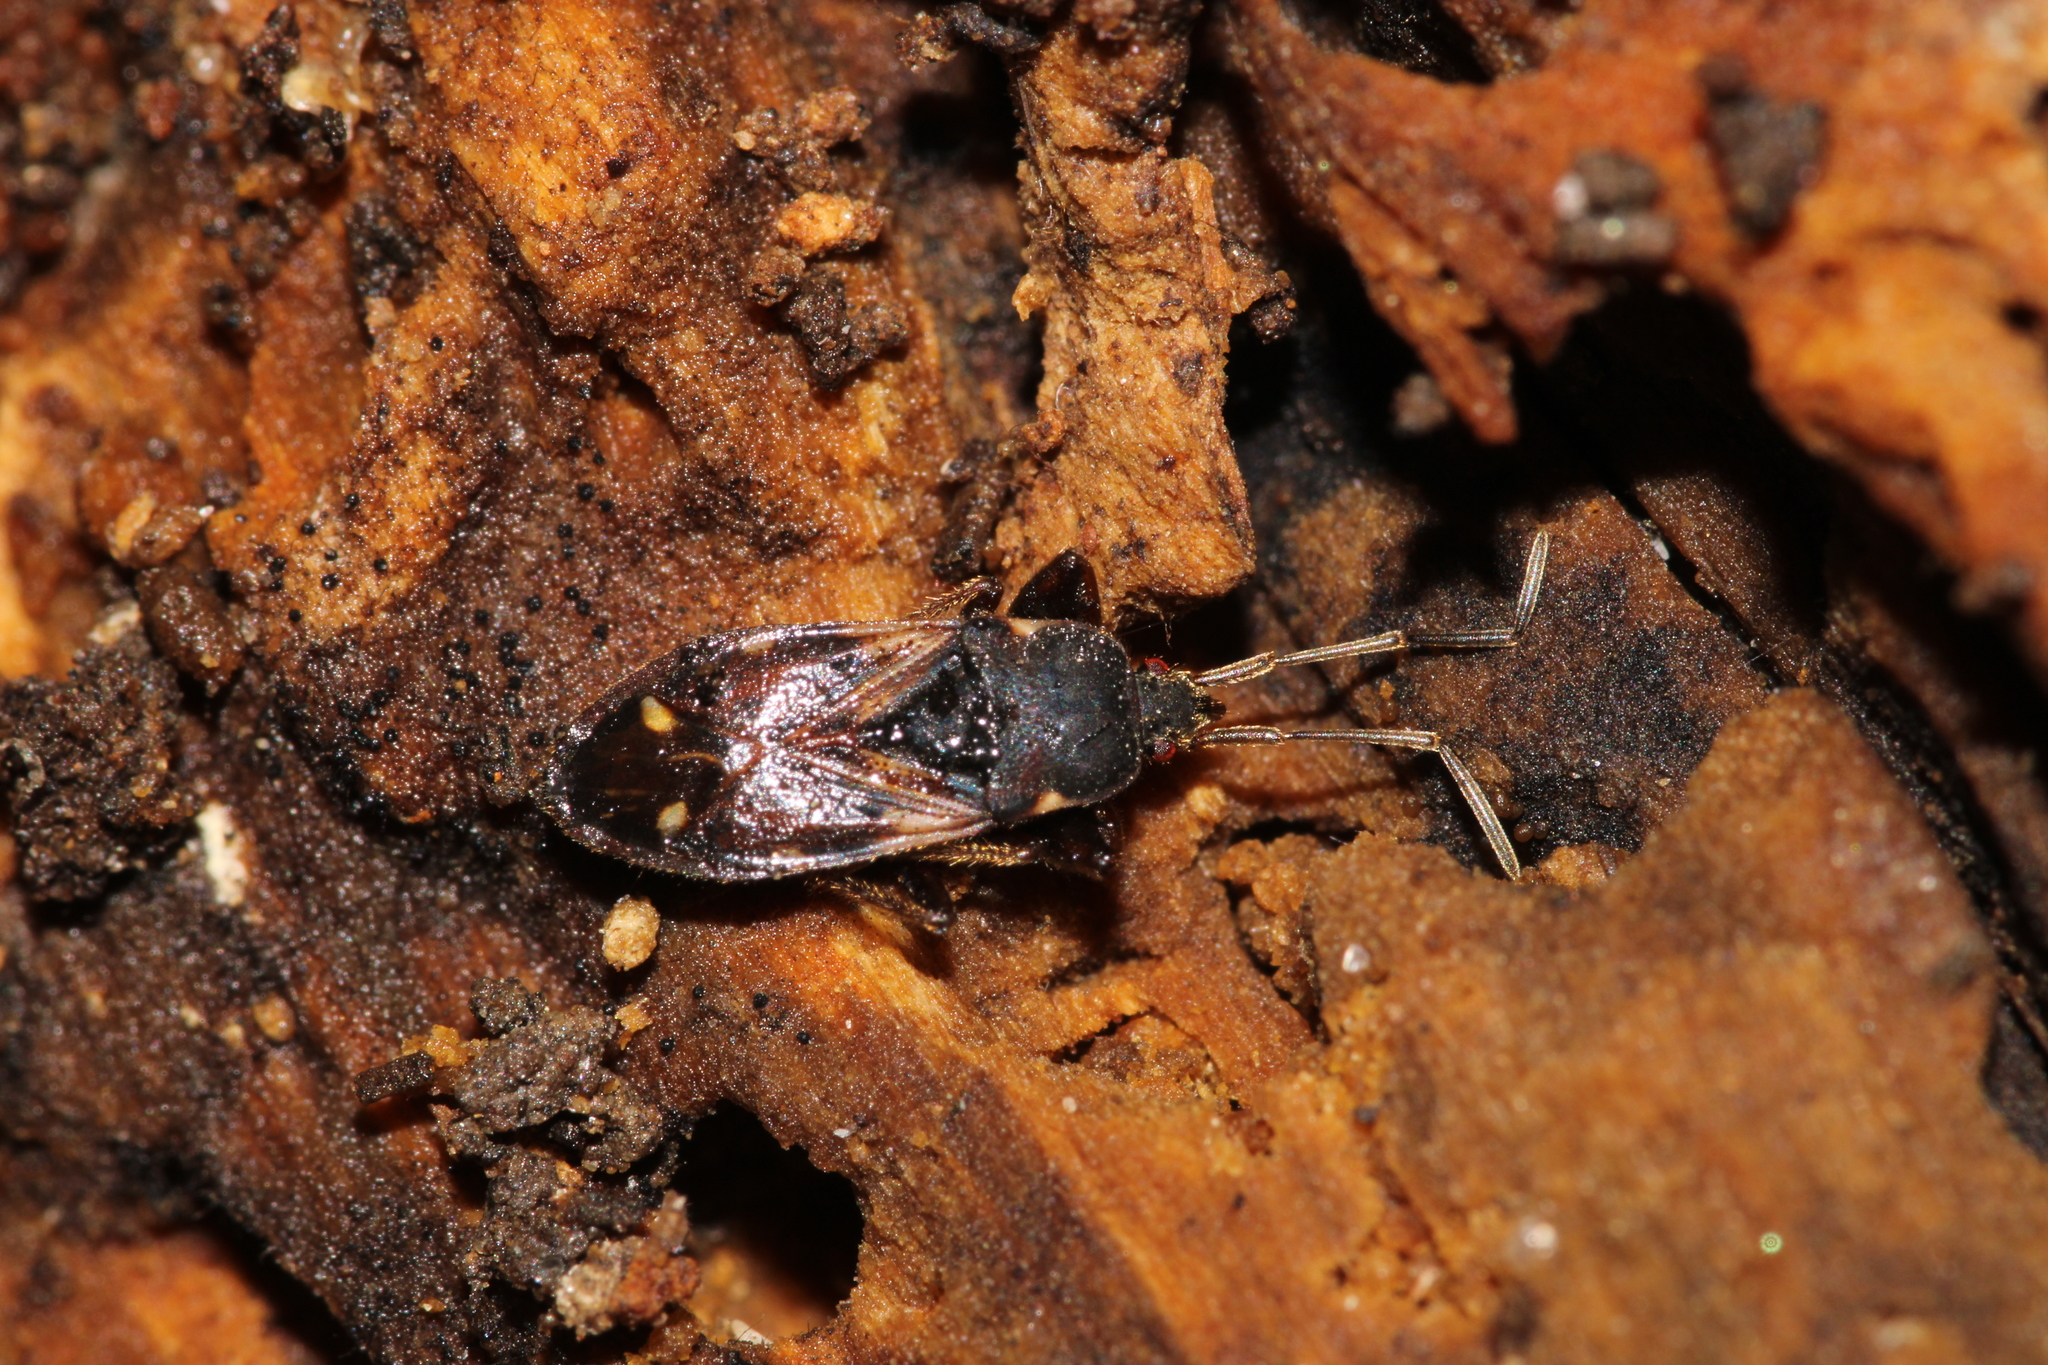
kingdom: Animalia
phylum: Arthropoda
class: Insecta
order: Hemiptera
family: Rhyparochromidae
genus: Eremocoris
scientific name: Eremocoris podagricus
